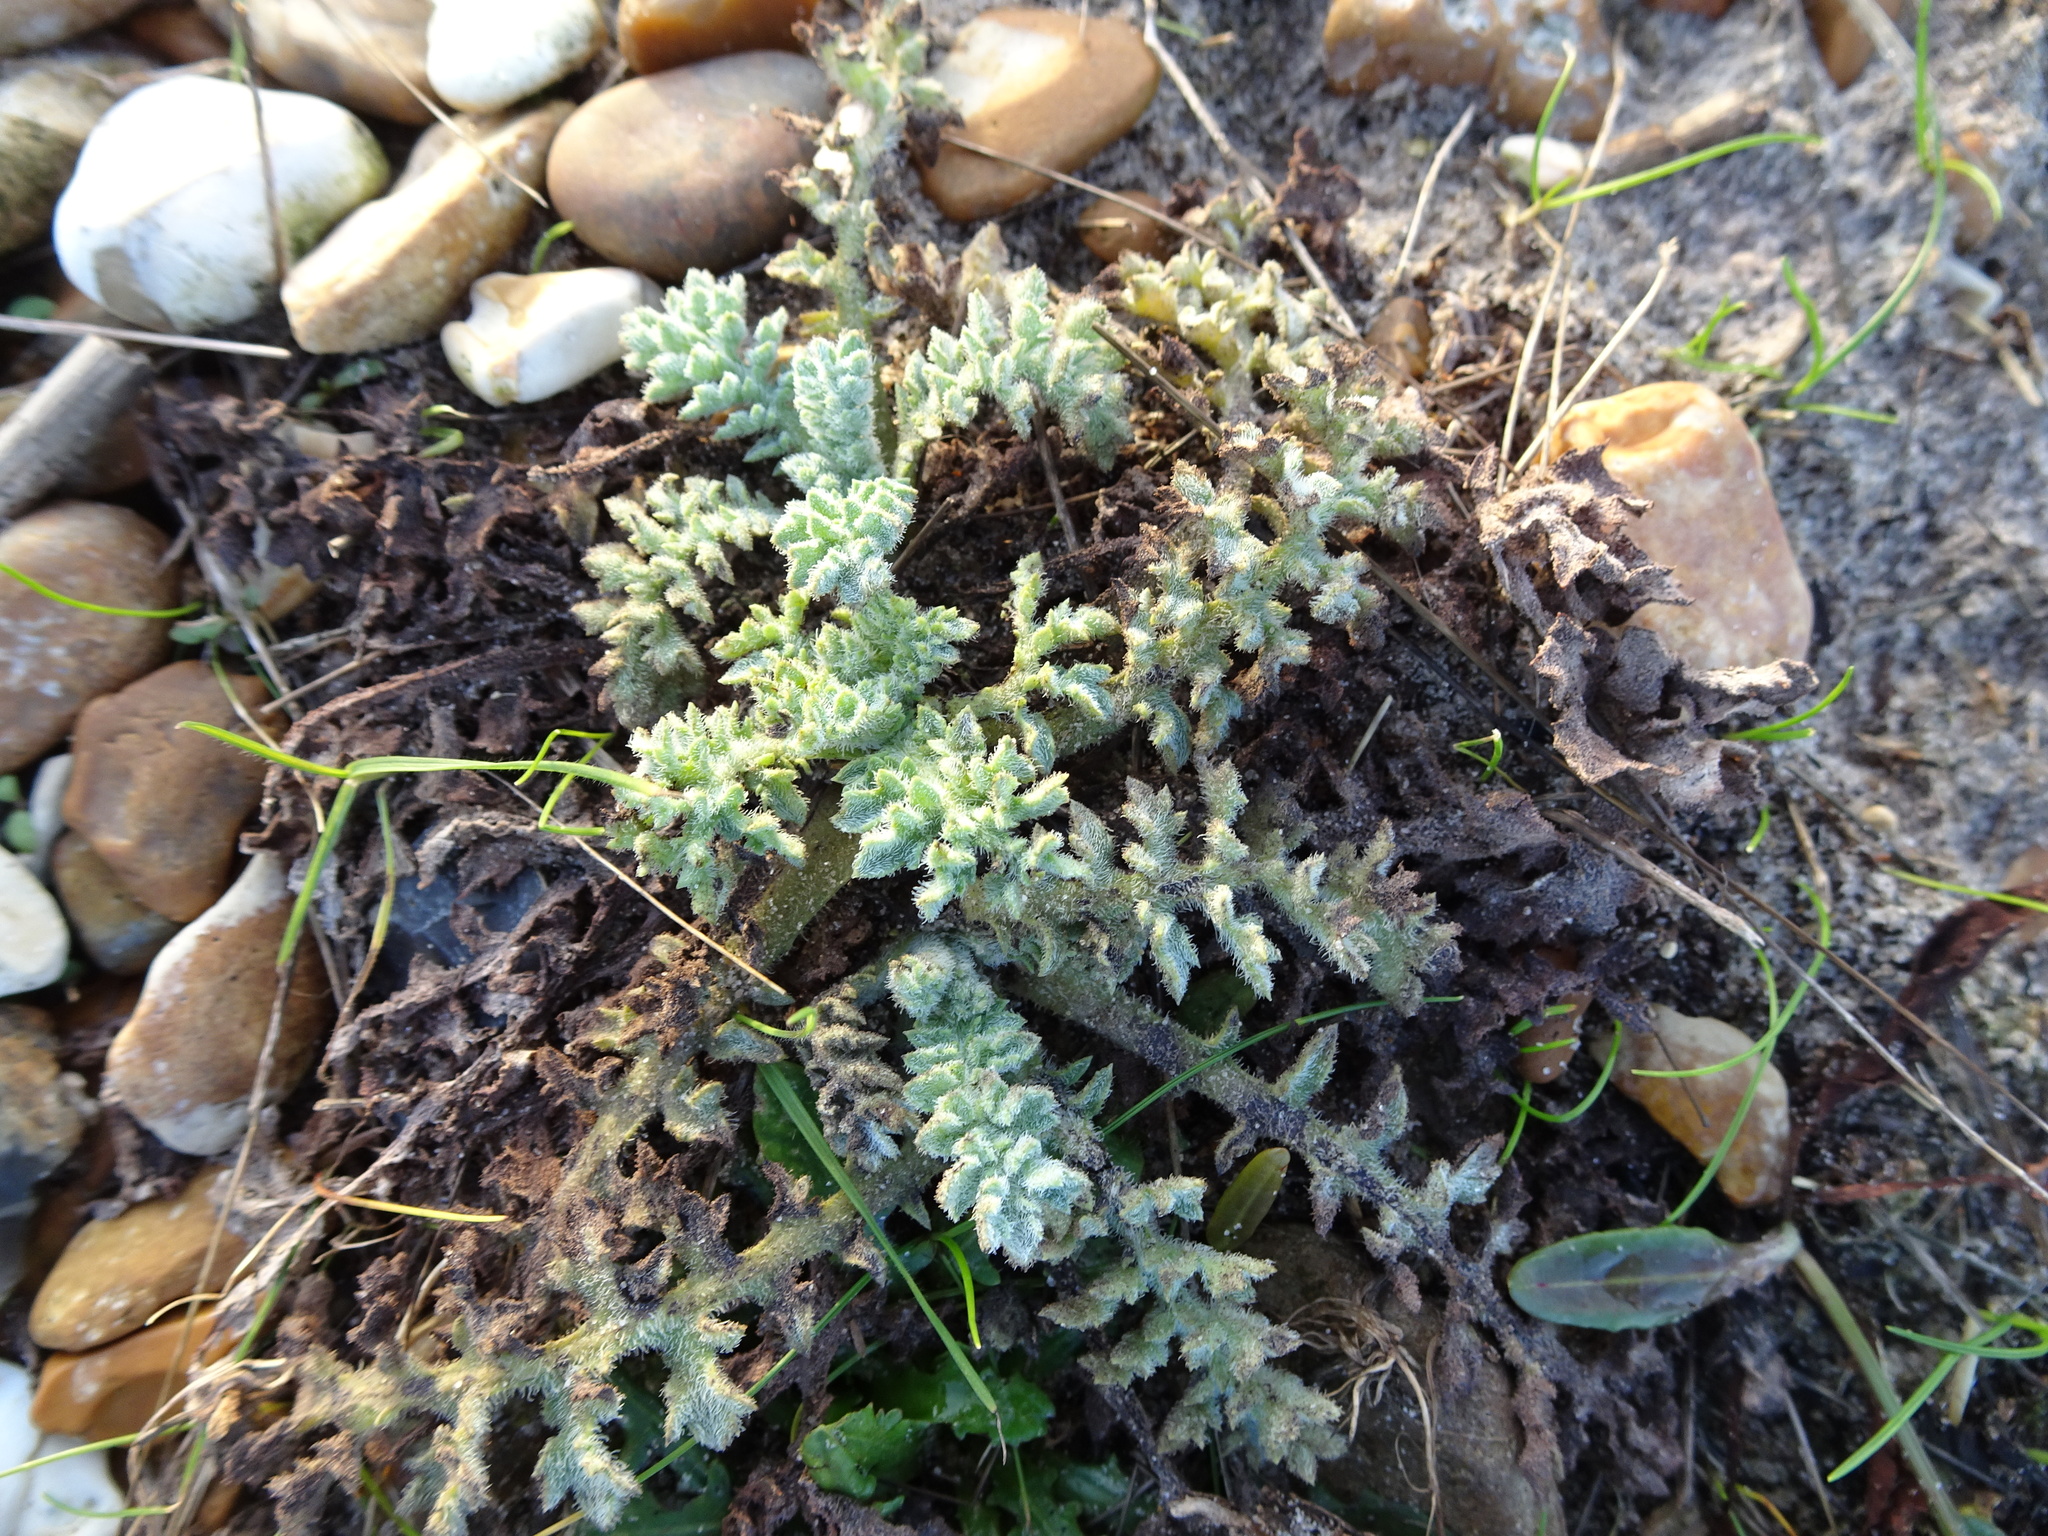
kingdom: Plantae
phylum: Tracheophyta
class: Magnoliopsida
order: Ranunculales
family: Papaveraceae
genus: Glaucium
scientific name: Glaucium flavum
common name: Yellow horned-poppy
